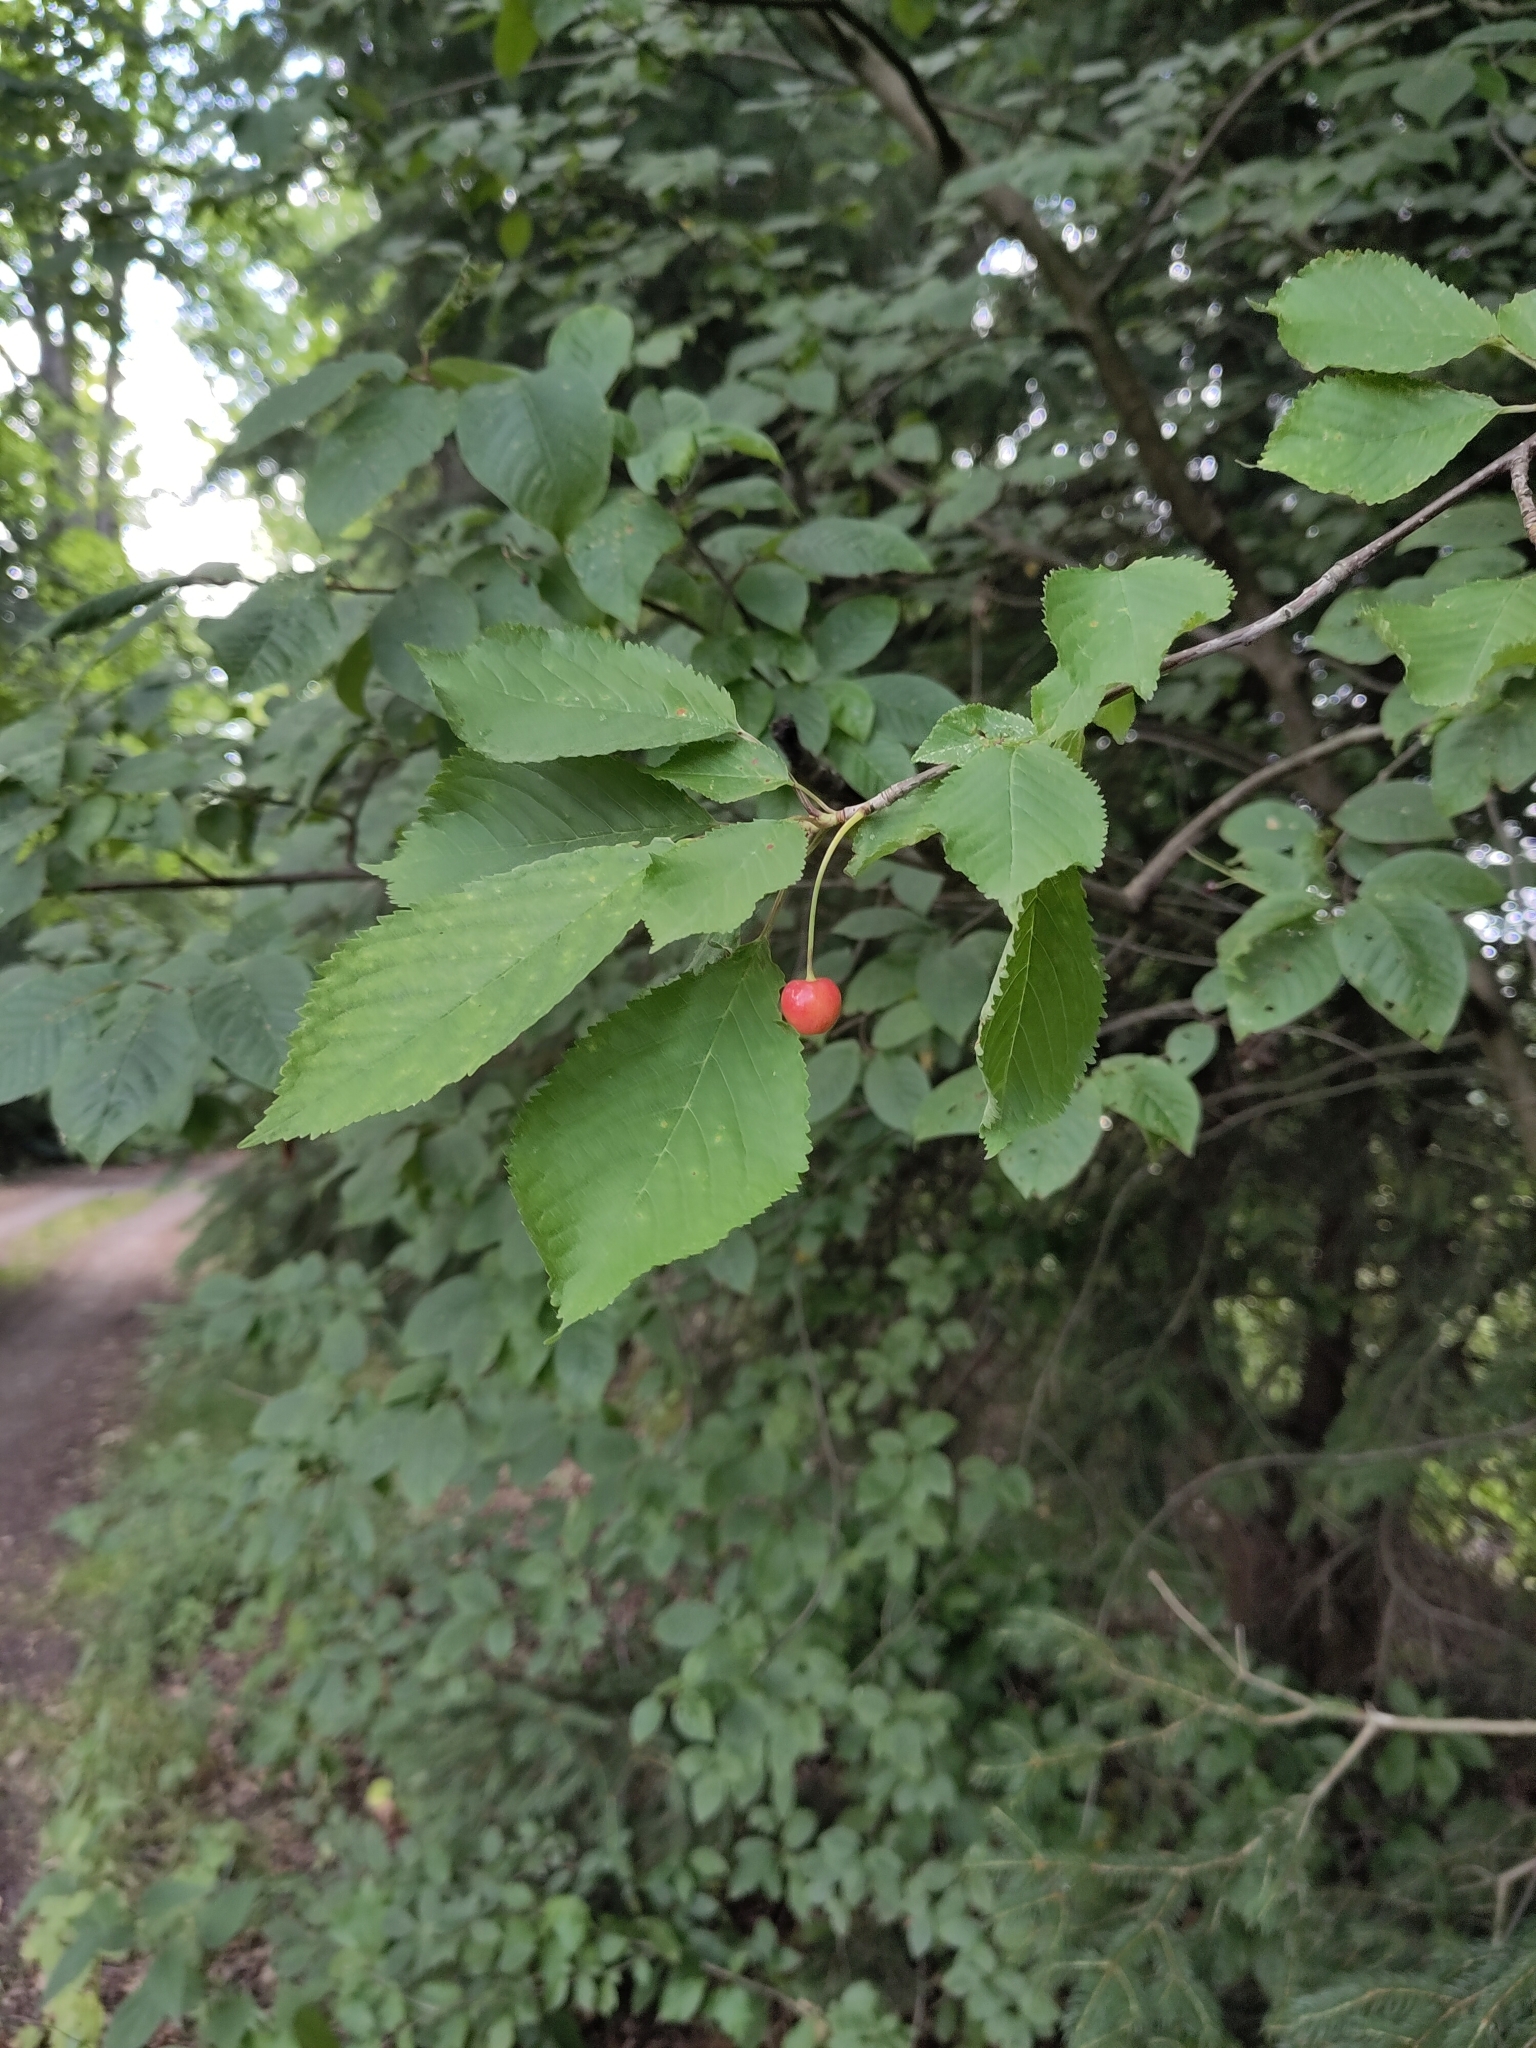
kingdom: Plantae
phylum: Tracheophyta
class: Magnoliopsida
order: Rosales
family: Rosaceae
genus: Prunus
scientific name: Prunus avium
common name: Sweet cherry
